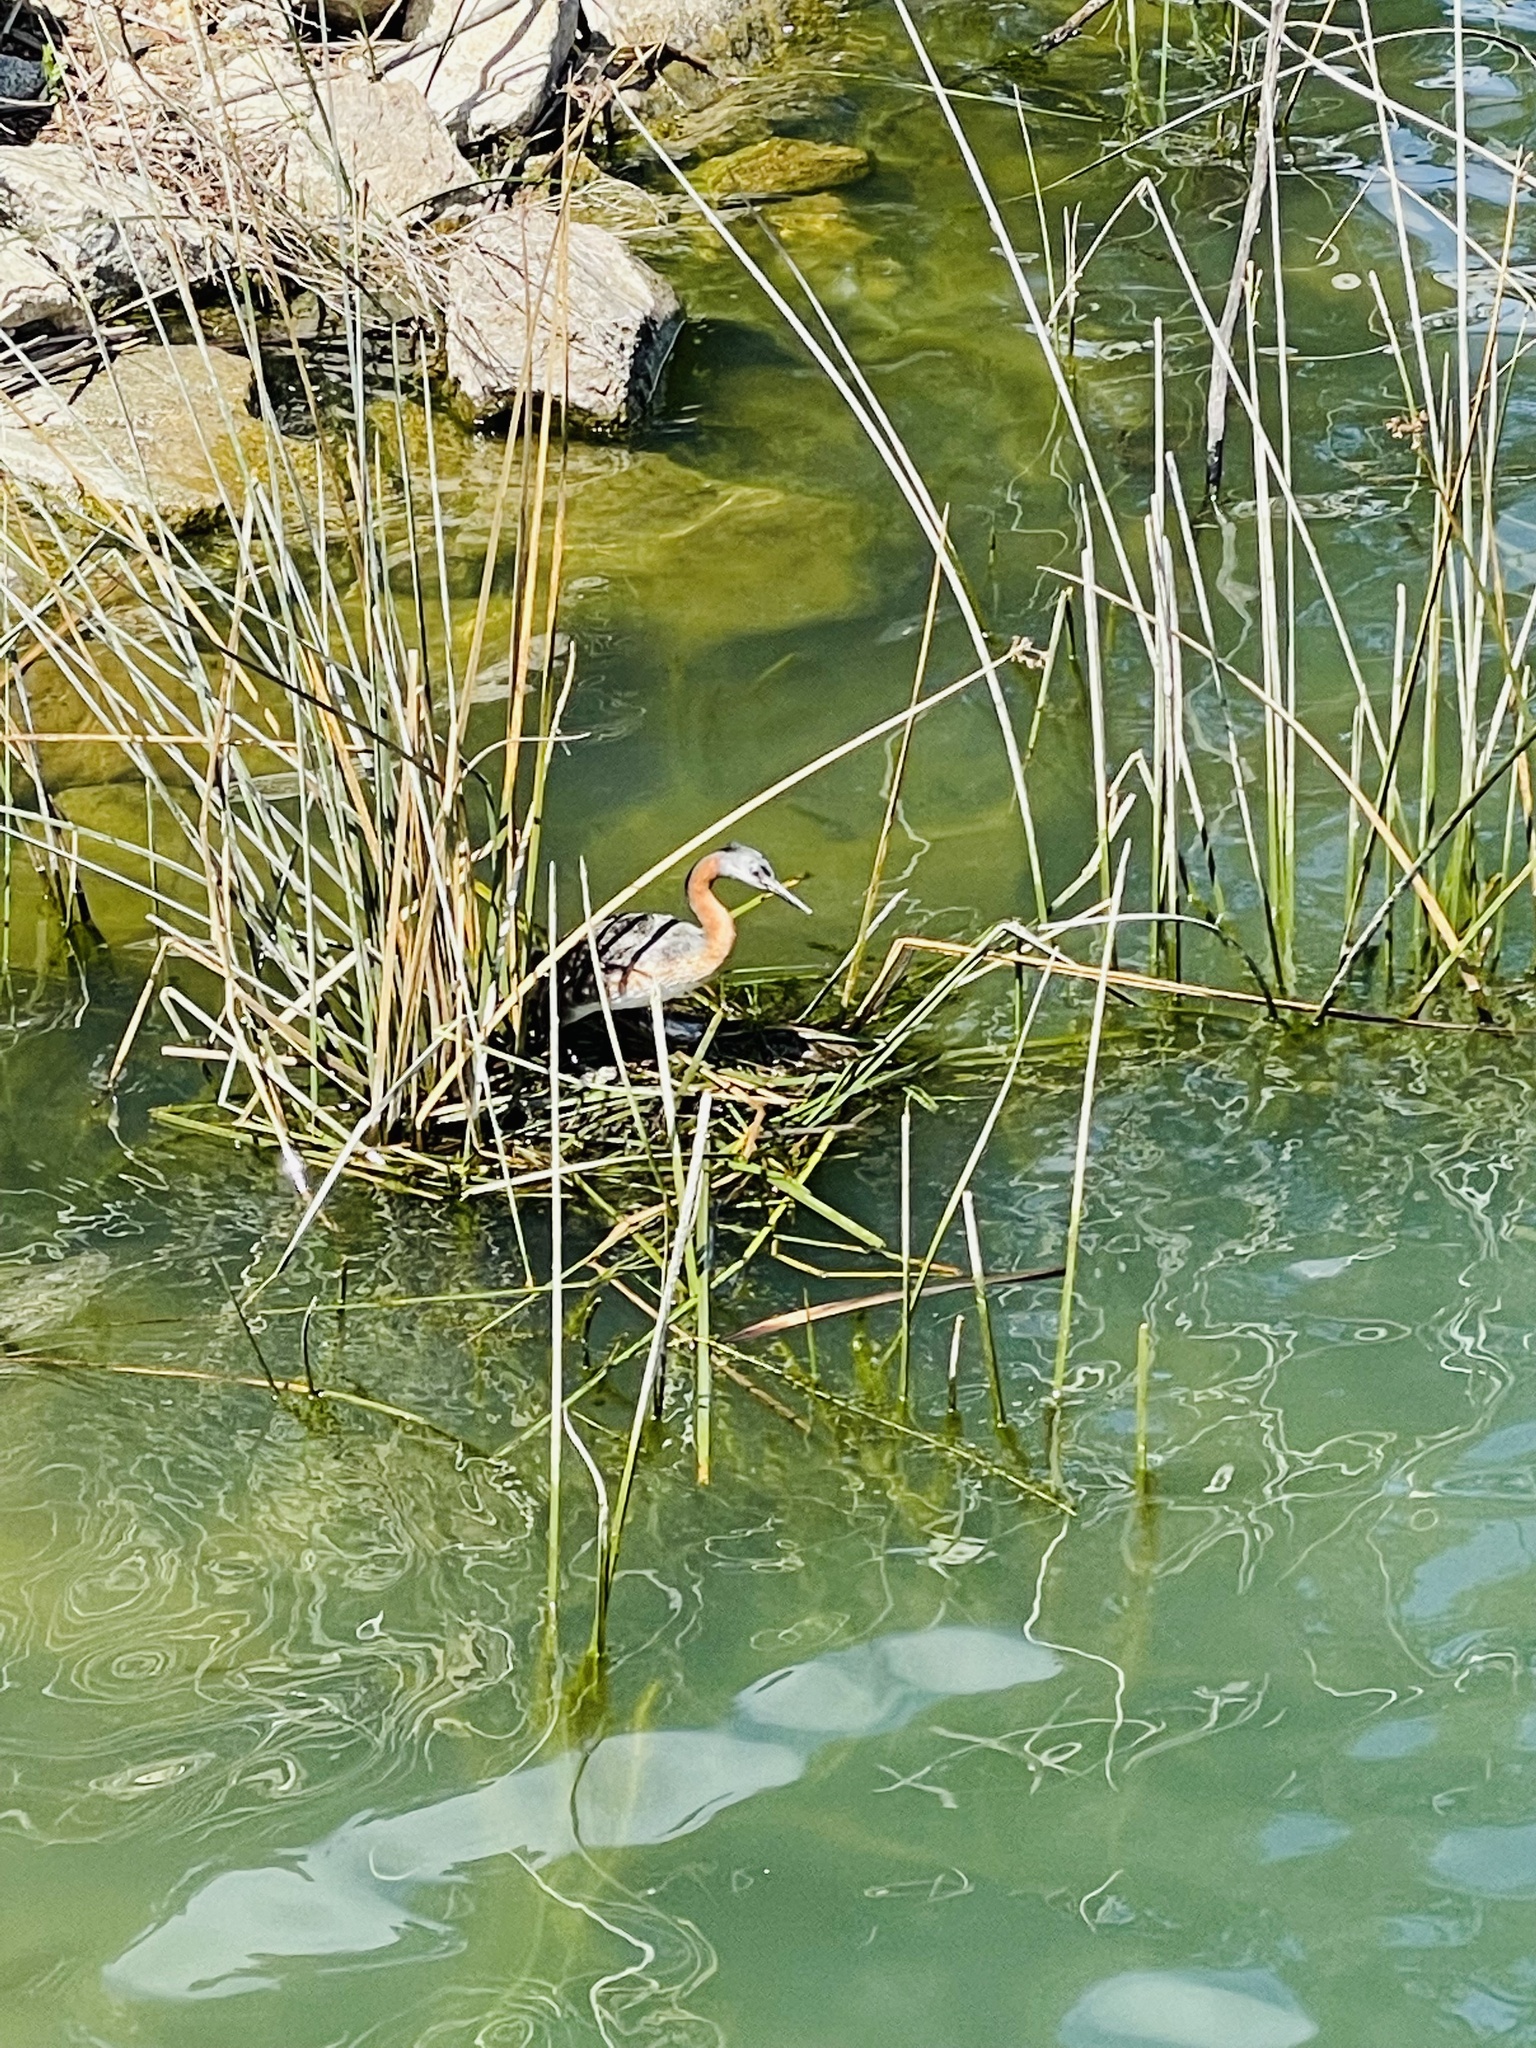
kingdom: Animalia
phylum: Chordata
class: Aves
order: Podicipediformes
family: Podicipedidae
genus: Podiceps
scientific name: Podiceps major
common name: Great grebe
